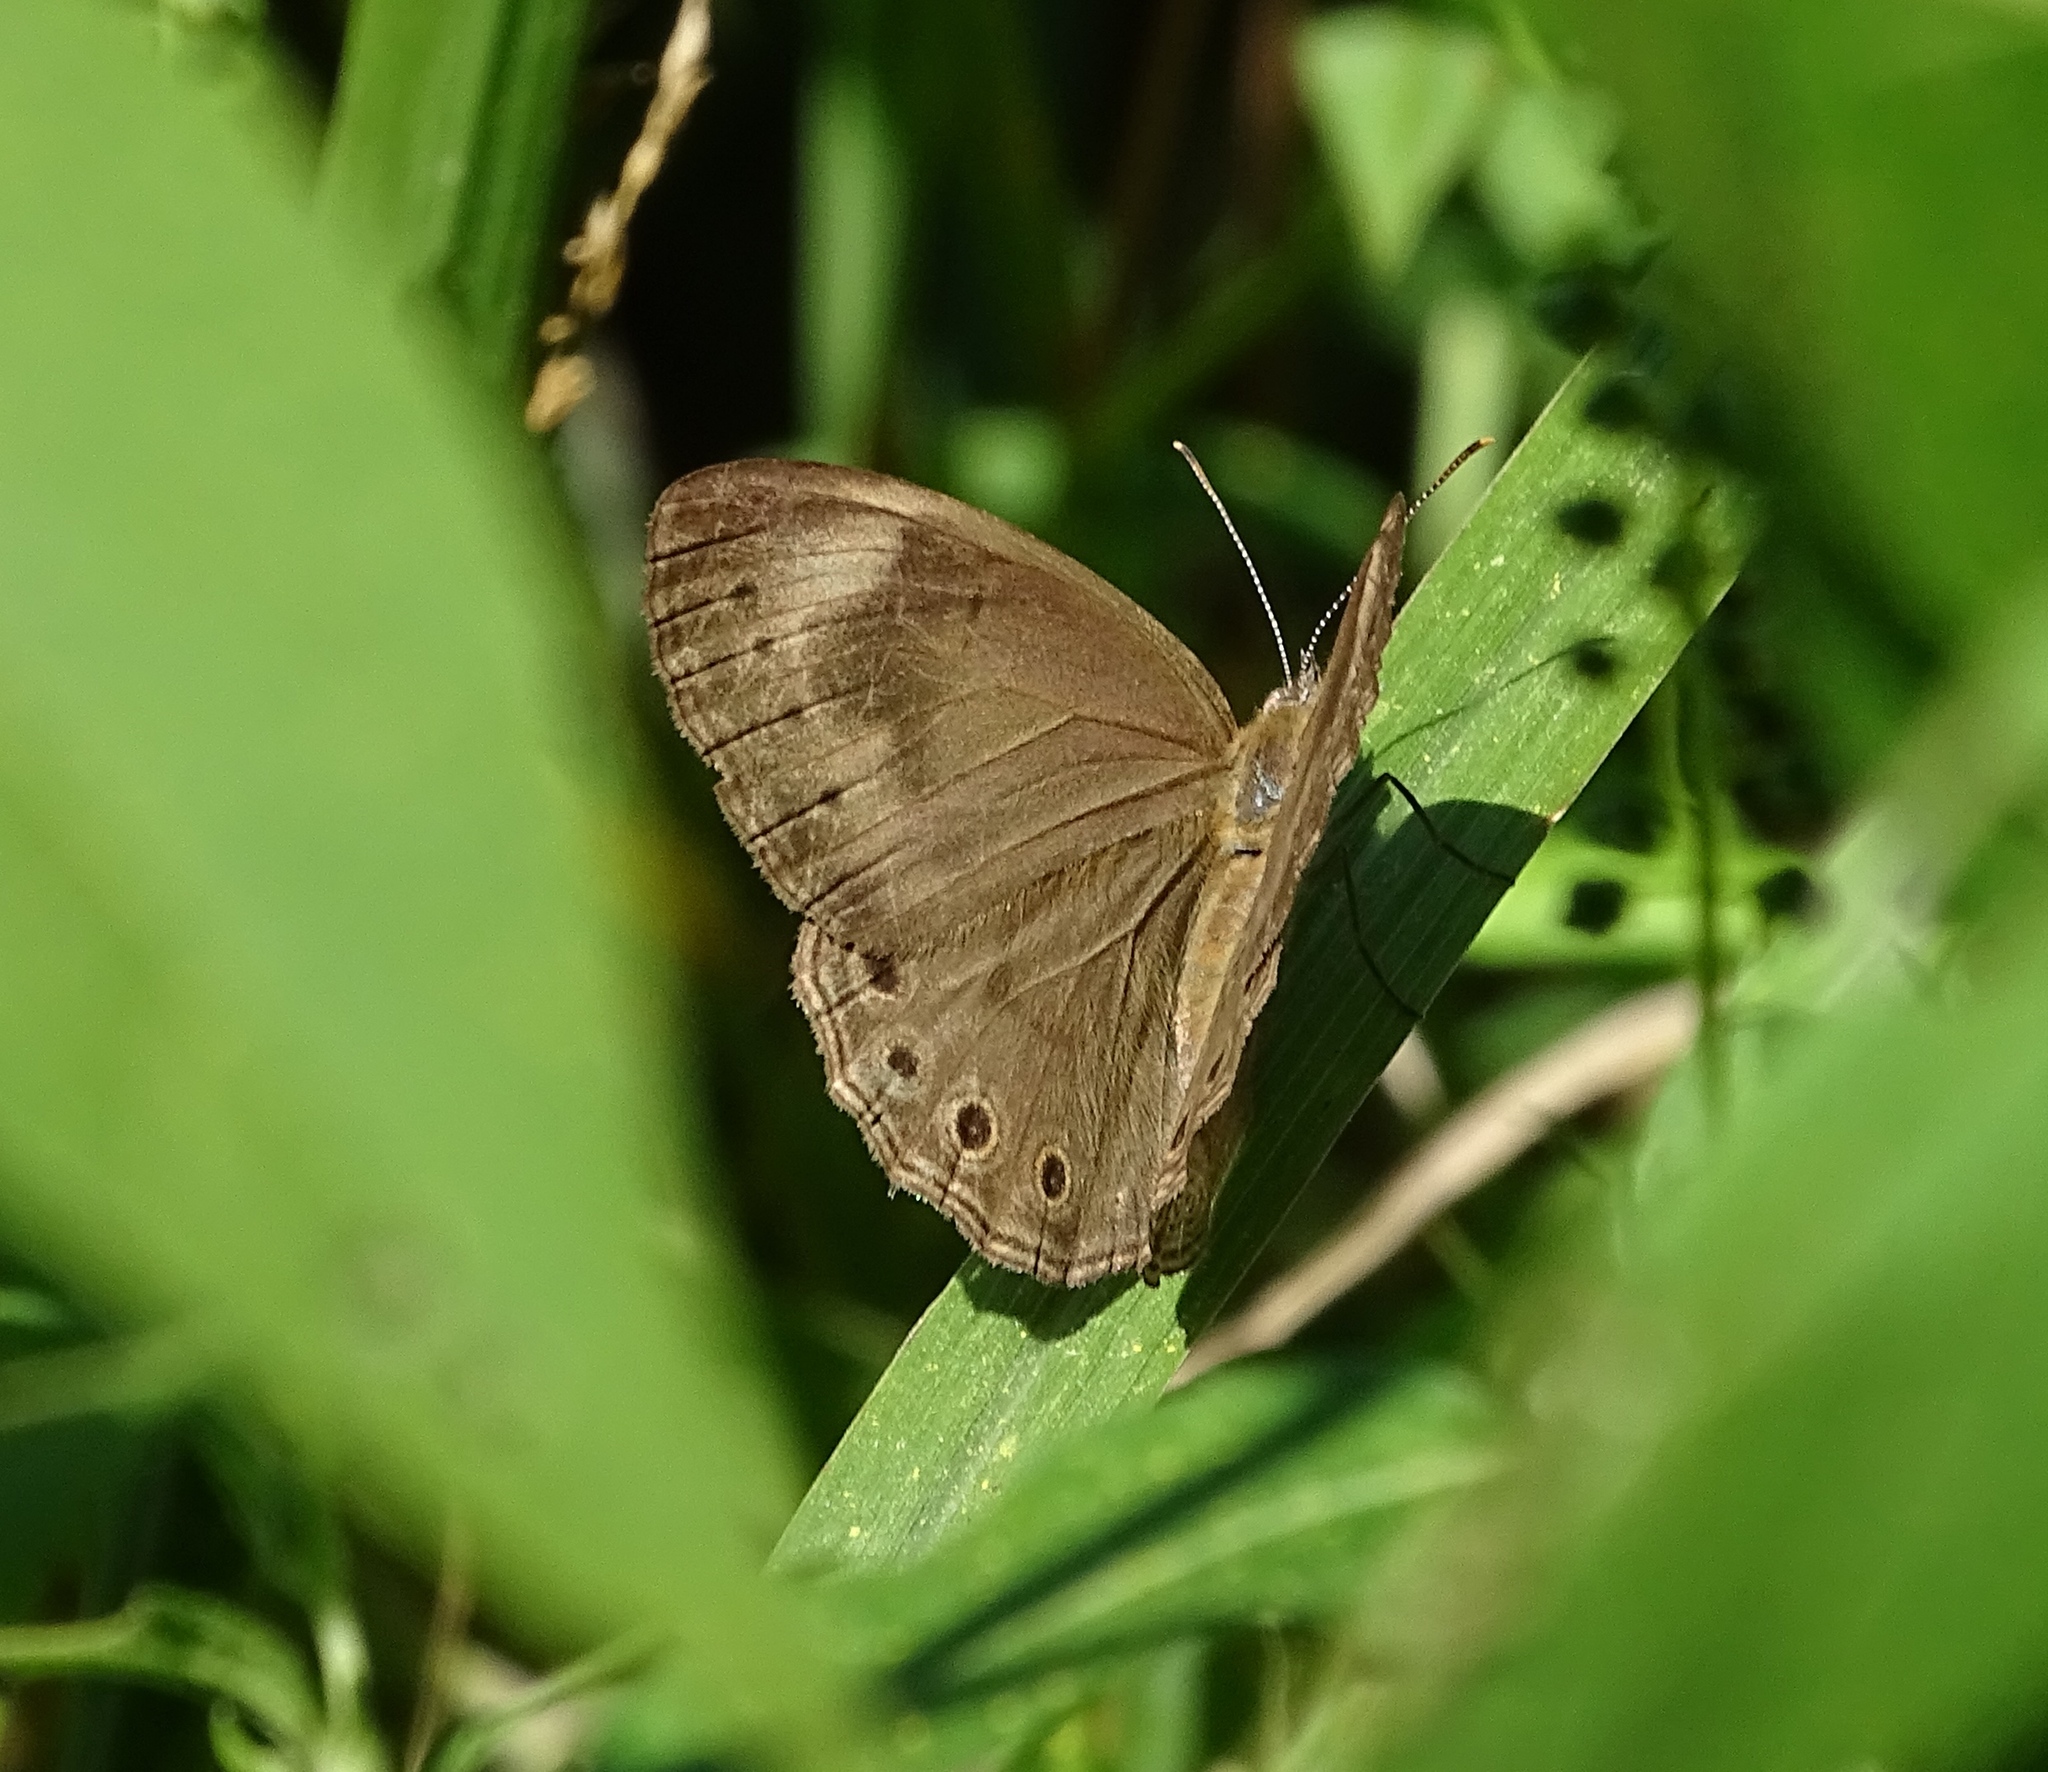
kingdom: Animalia
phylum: Arthropoda
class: Insecta
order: Lepidoptera
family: Nymphalidae
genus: Lethe
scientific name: Lethe eurydice
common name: Eyed brown
